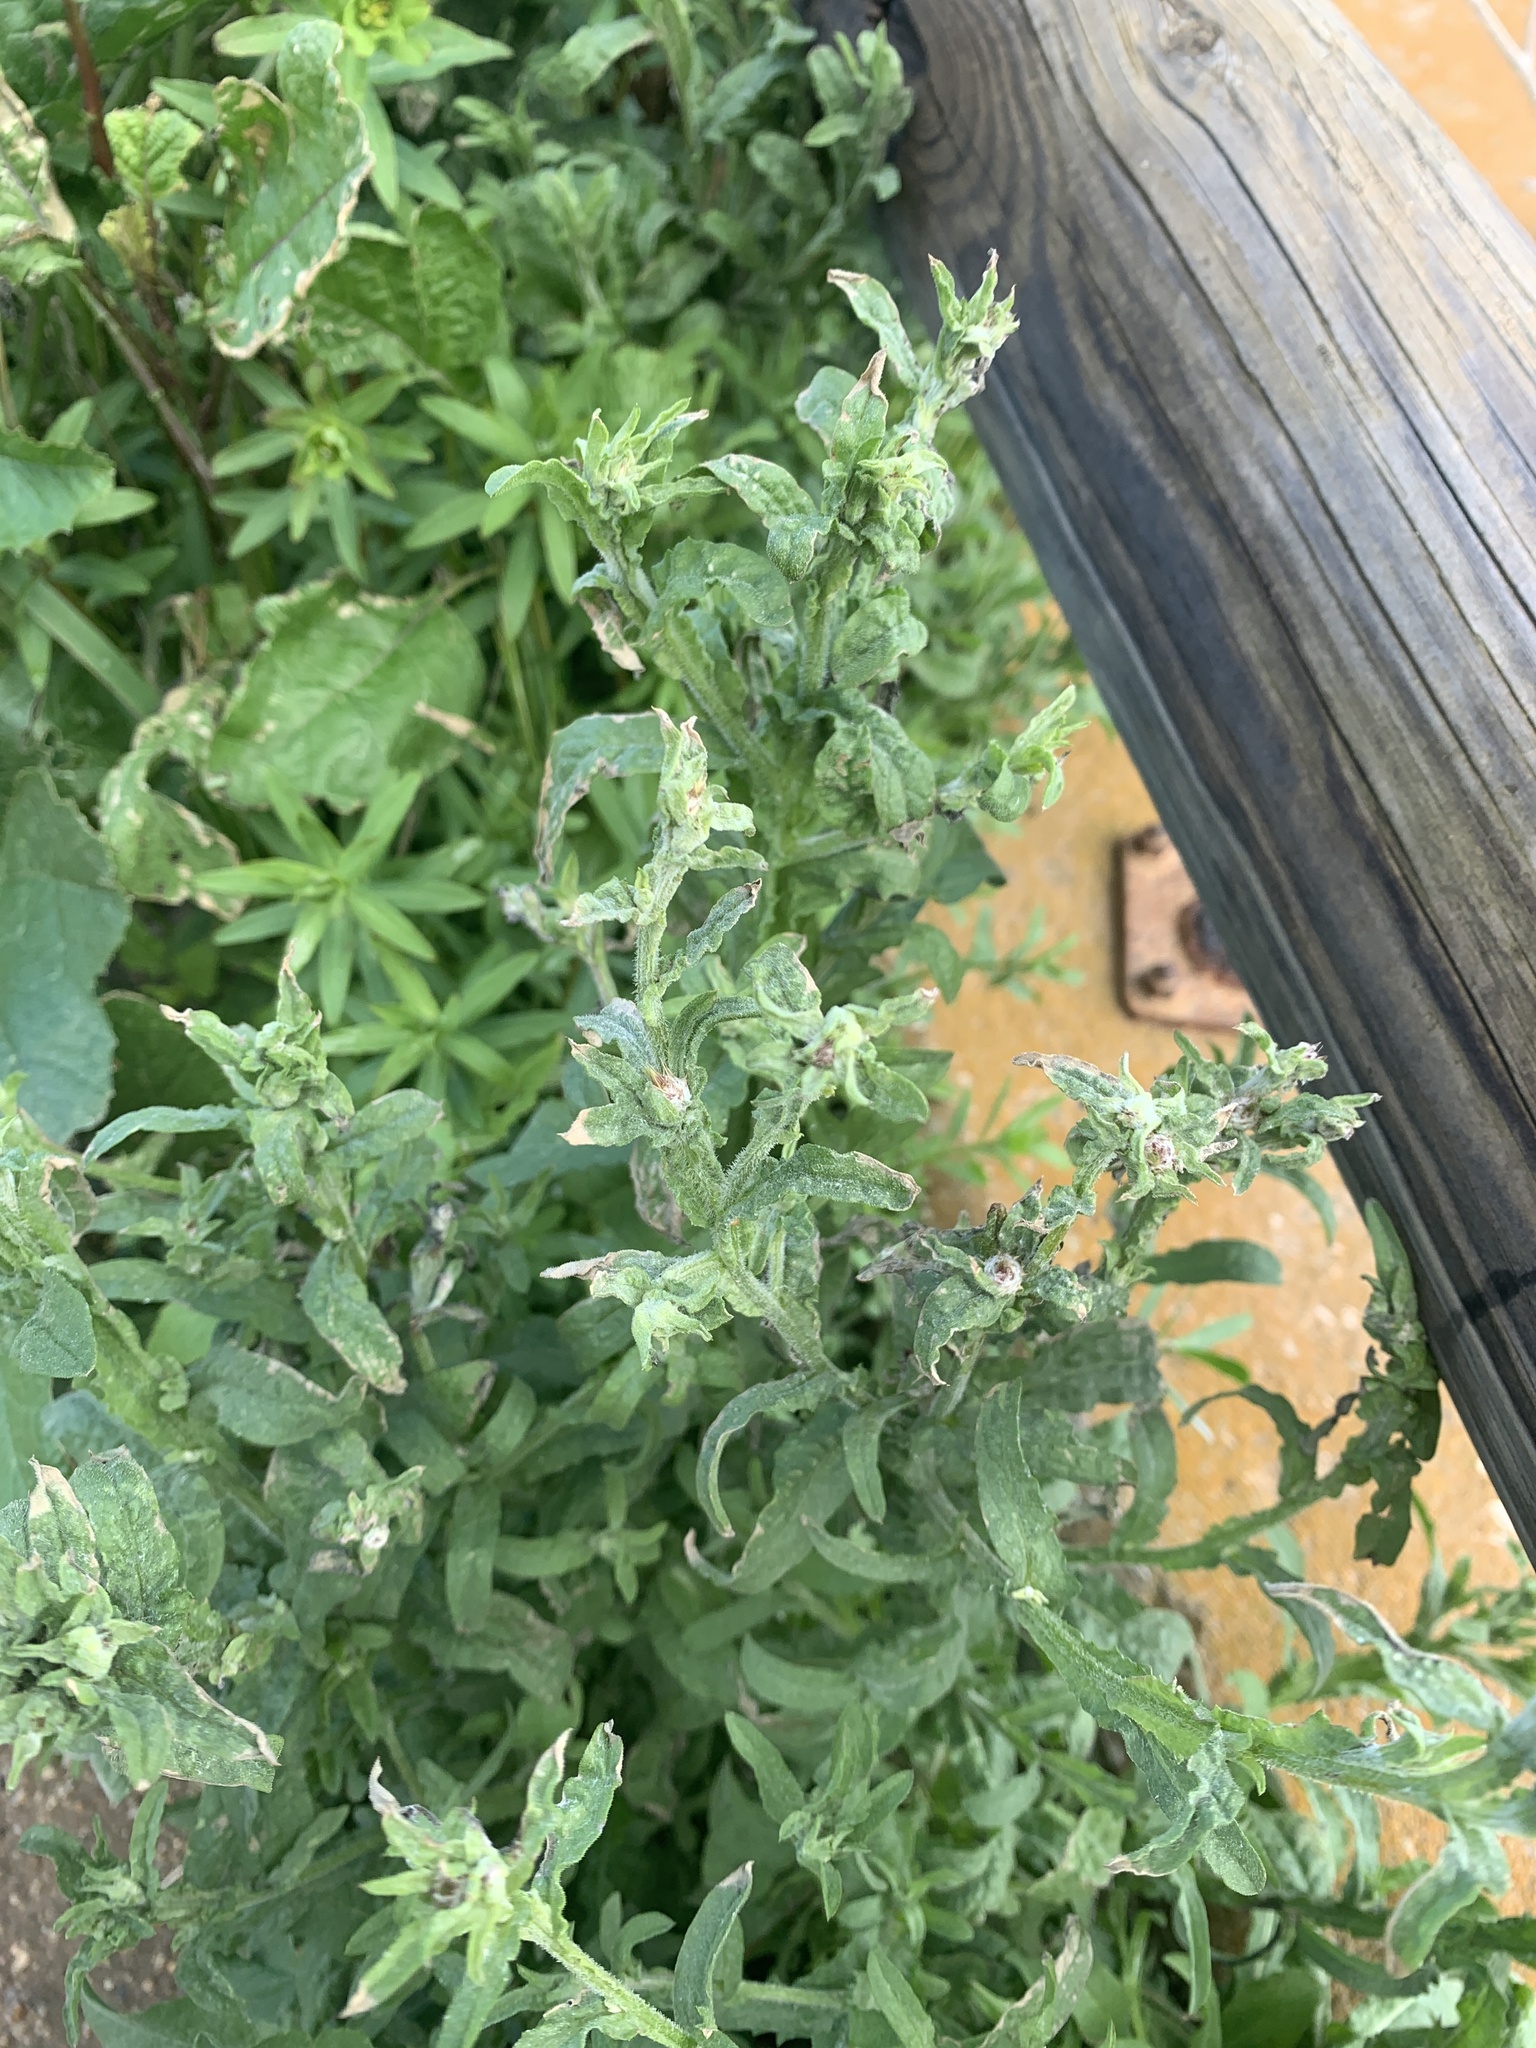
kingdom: Plantae
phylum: Tracheophyta
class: Magnoliopsida
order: Asterales
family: Asteraceae
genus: Centaurea
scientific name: Centaurea melitensis
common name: Maltese star-thistle
